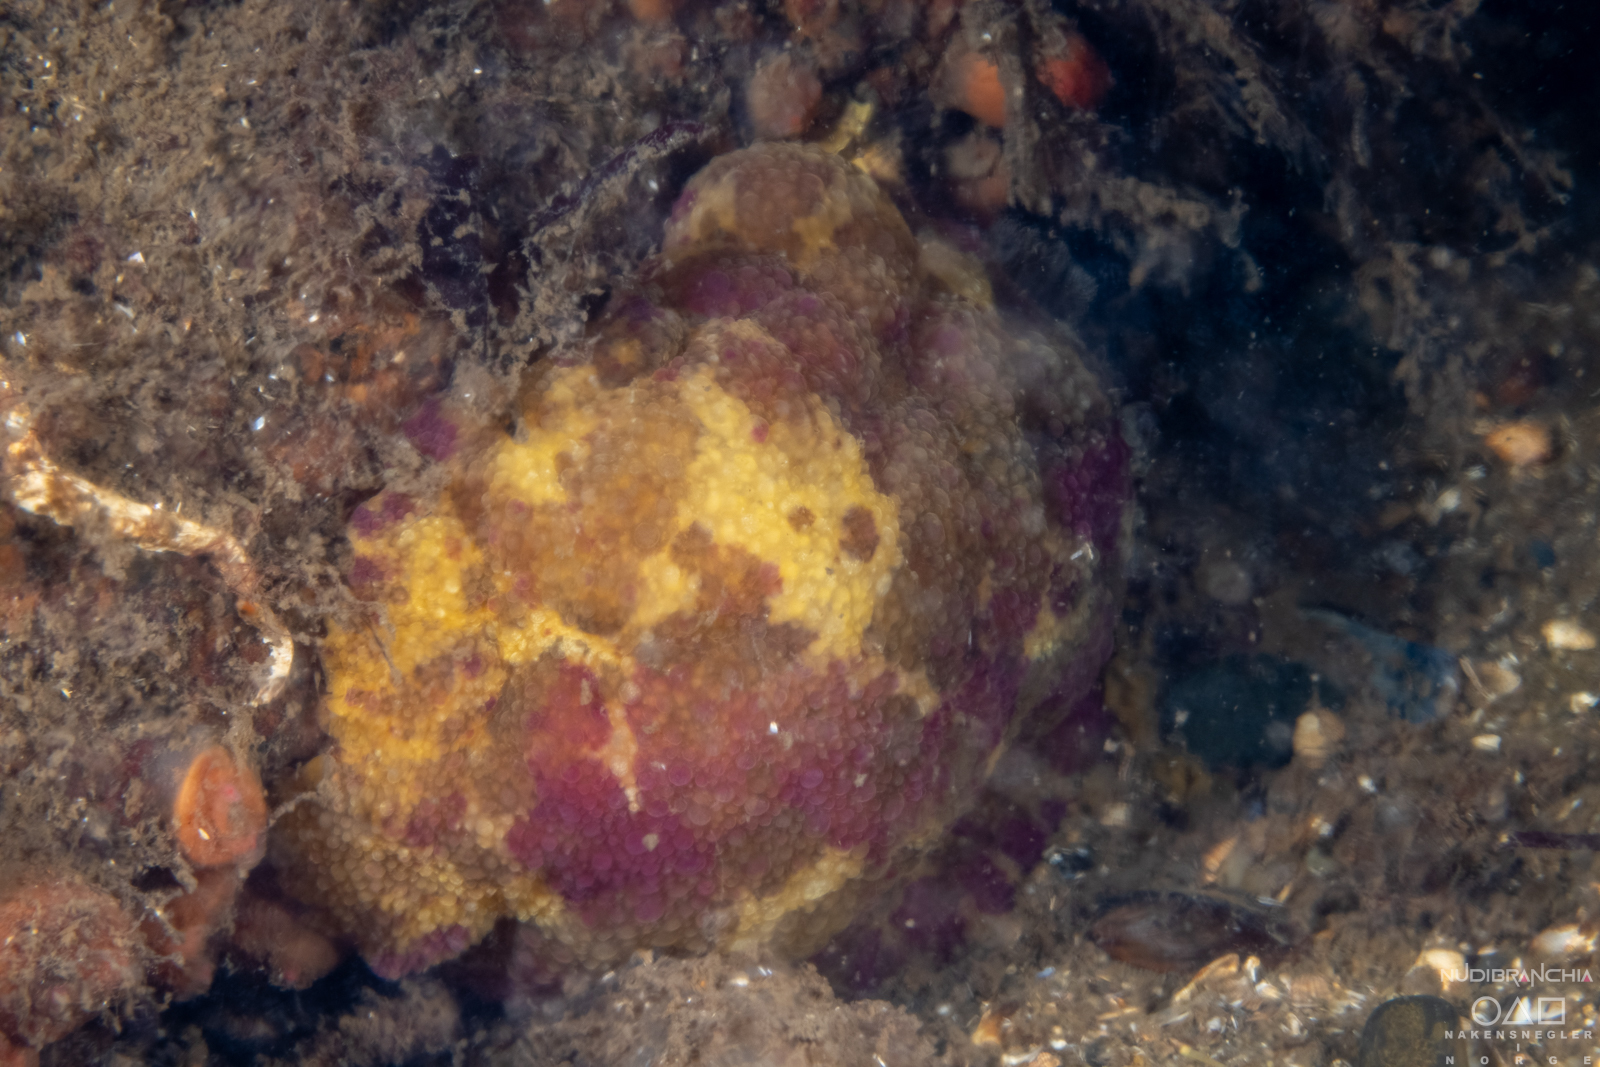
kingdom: Animalia
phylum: Mollusca
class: Gastropoda
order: Nudibranchia
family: Dorididae
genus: Doris
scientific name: Doris pseudoargus
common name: Sea lemon
